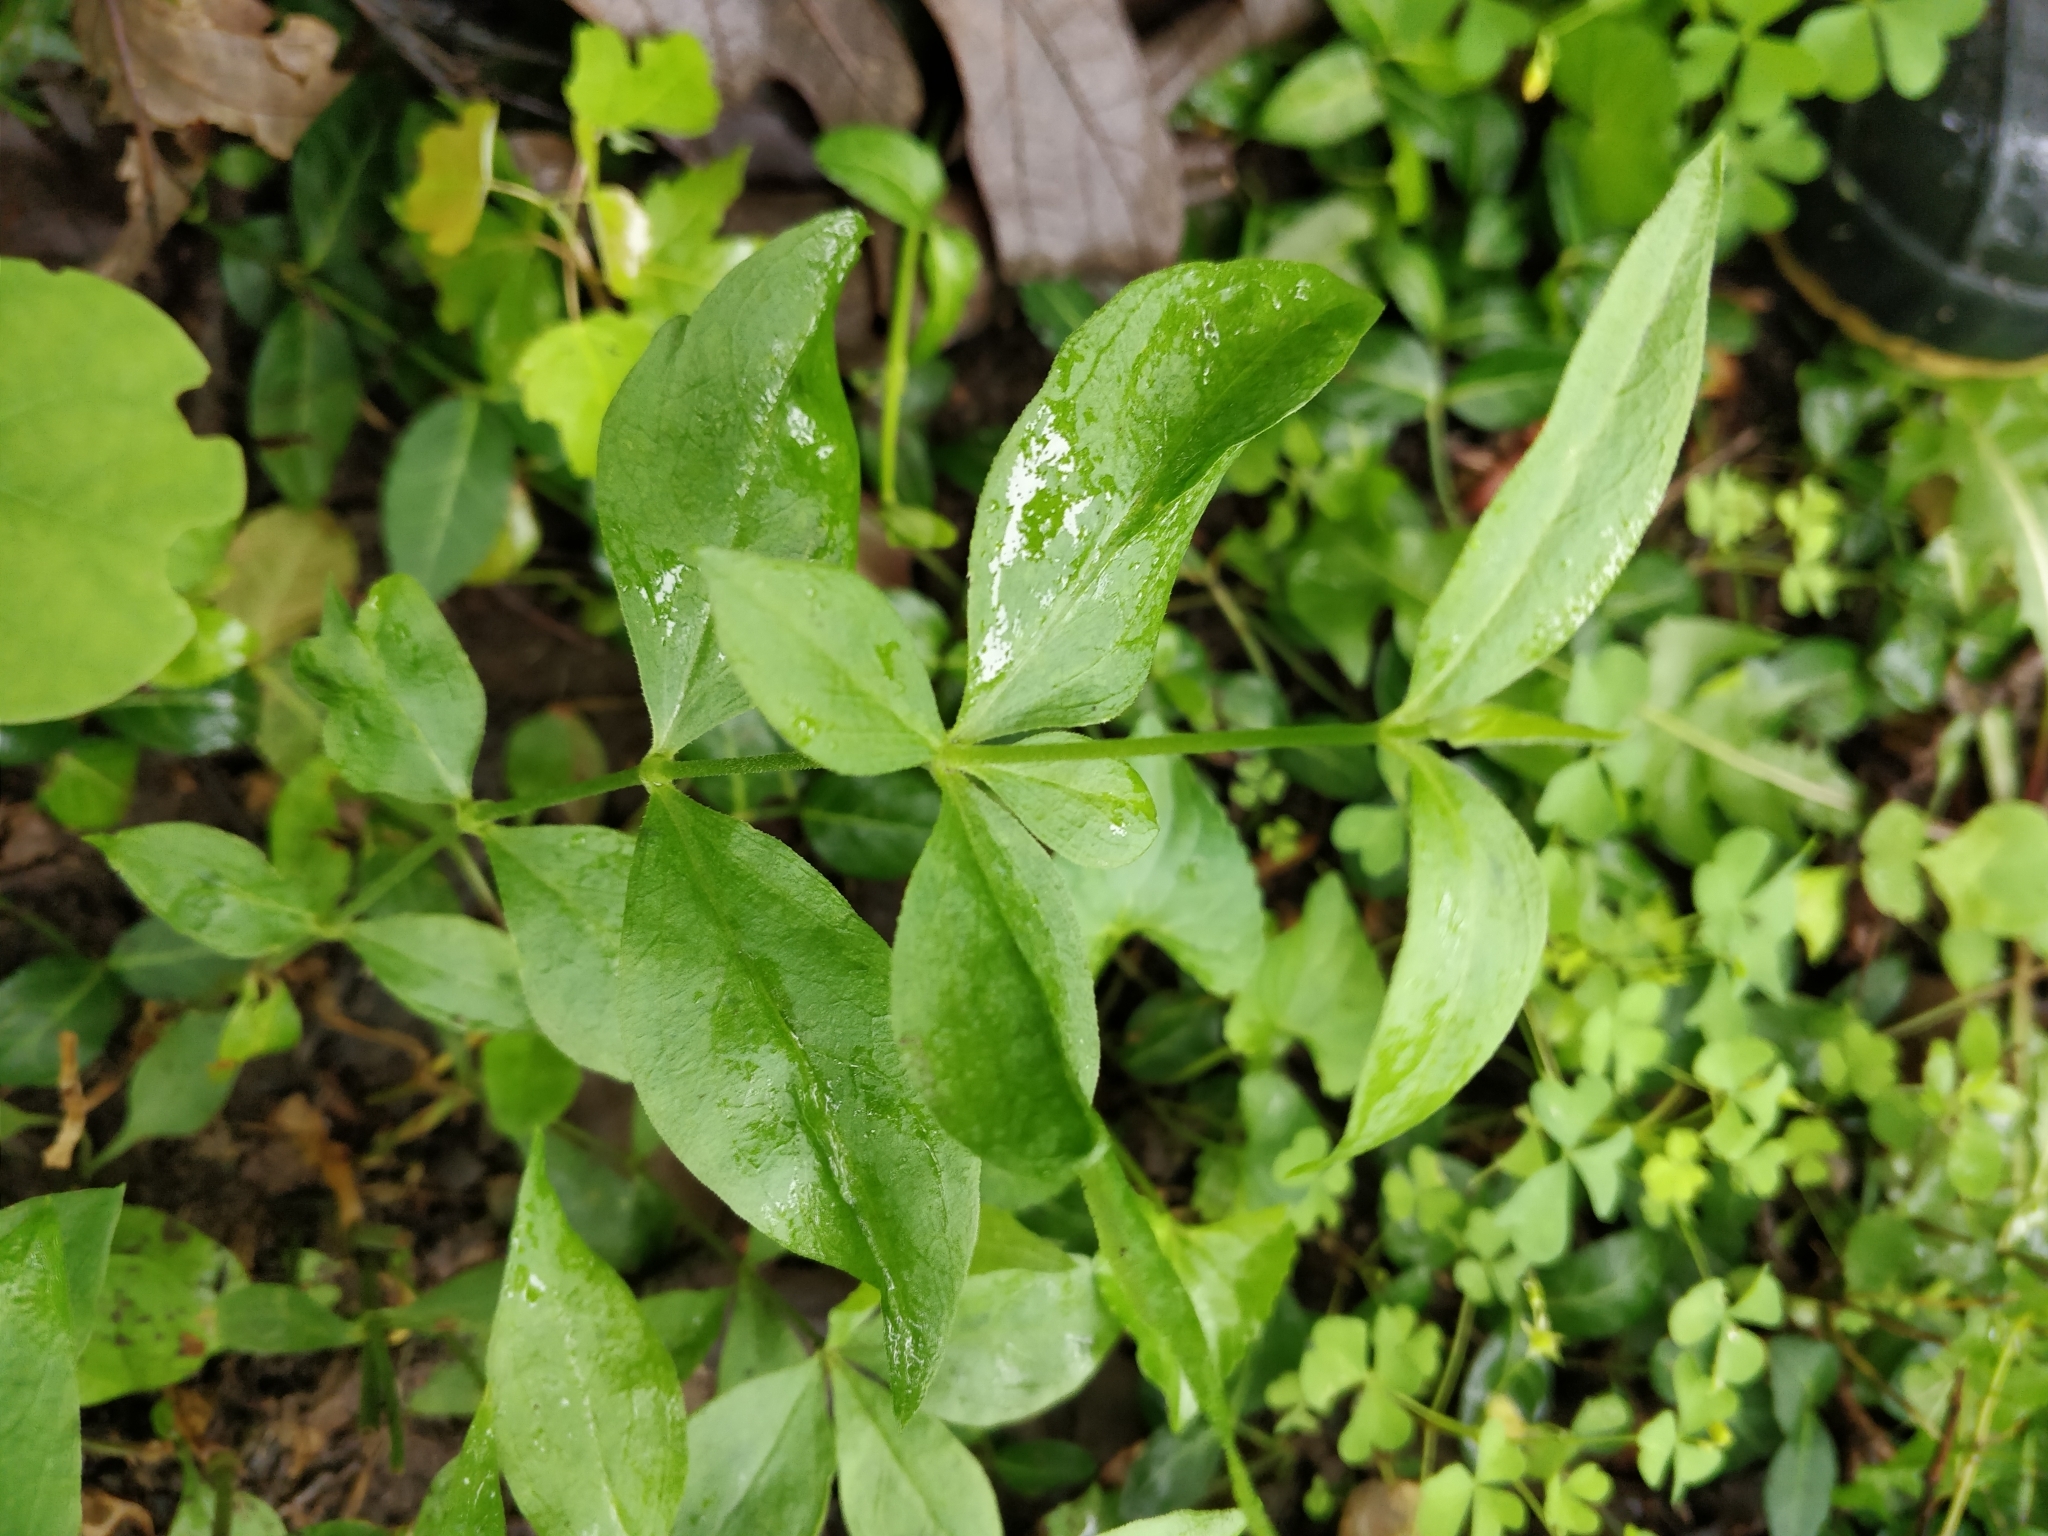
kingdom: Plantae
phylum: Tracheophyta
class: Magnoliopsida
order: Caryophyllales
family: Caryophyllaceae
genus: Silene
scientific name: Silene stellata
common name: Starry campion
